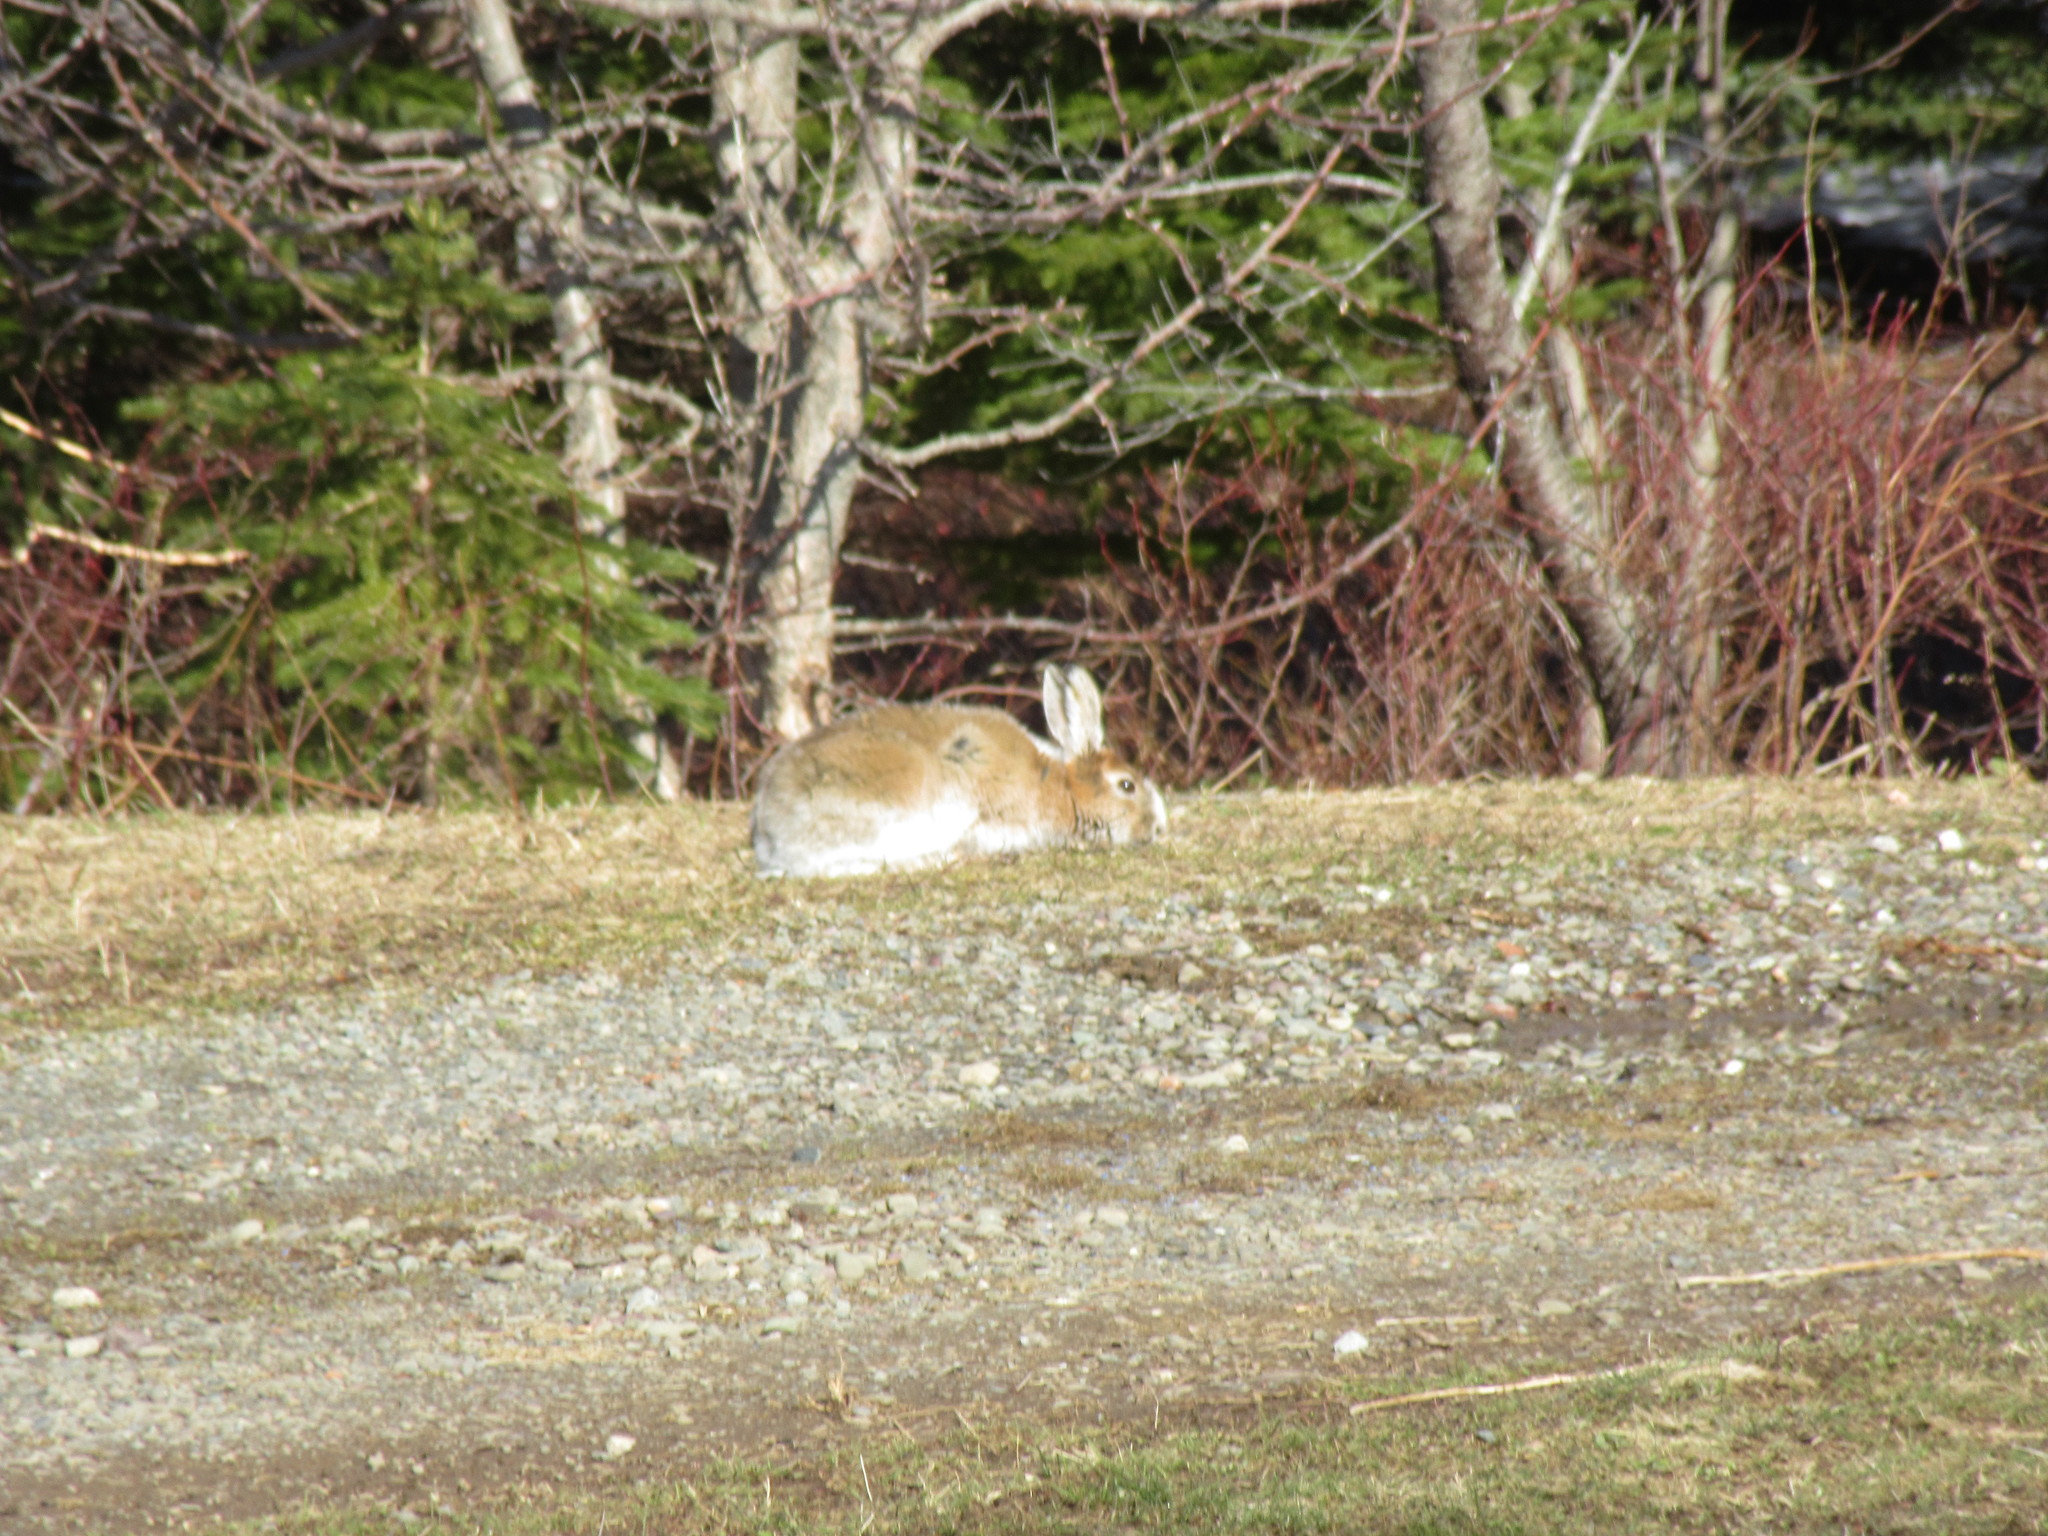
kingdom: Animalia
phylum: Chordata
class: Mammalia
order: Lagomorpha
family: Leporidae
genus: Lepus
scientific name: Lepus americanus
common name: Snowshoe hare
